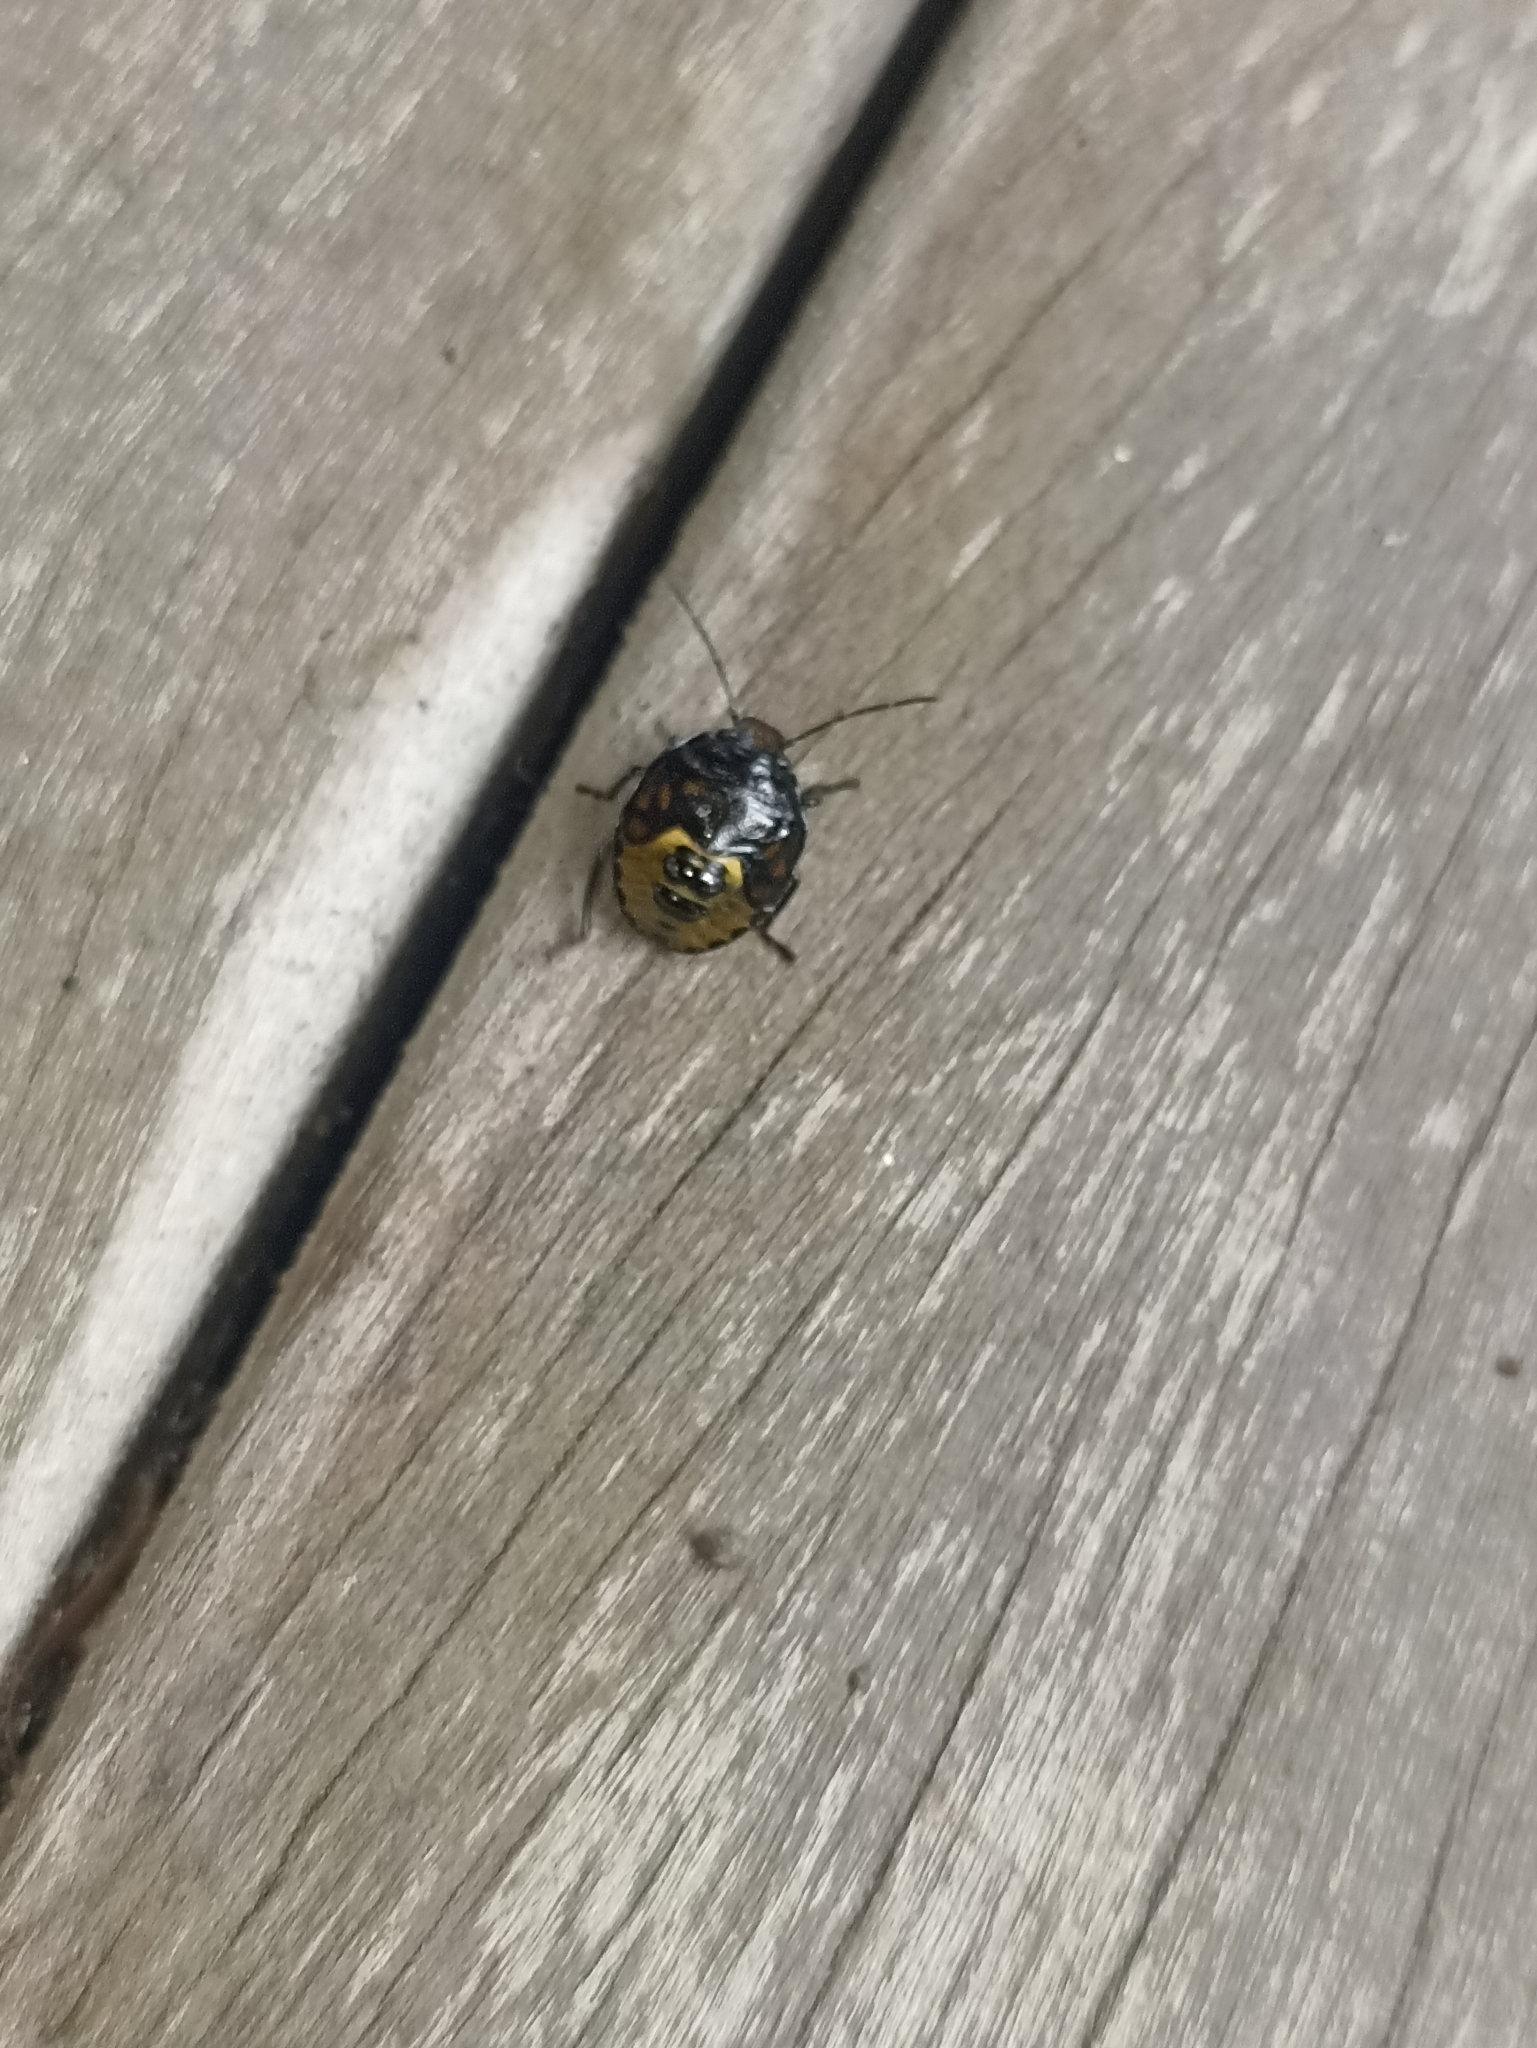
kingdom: Animalia
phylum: Arthropoda
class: Insecta
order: Hemiptera
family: Pentatomidae
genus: Glaucias
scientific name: Glaucias amyota
